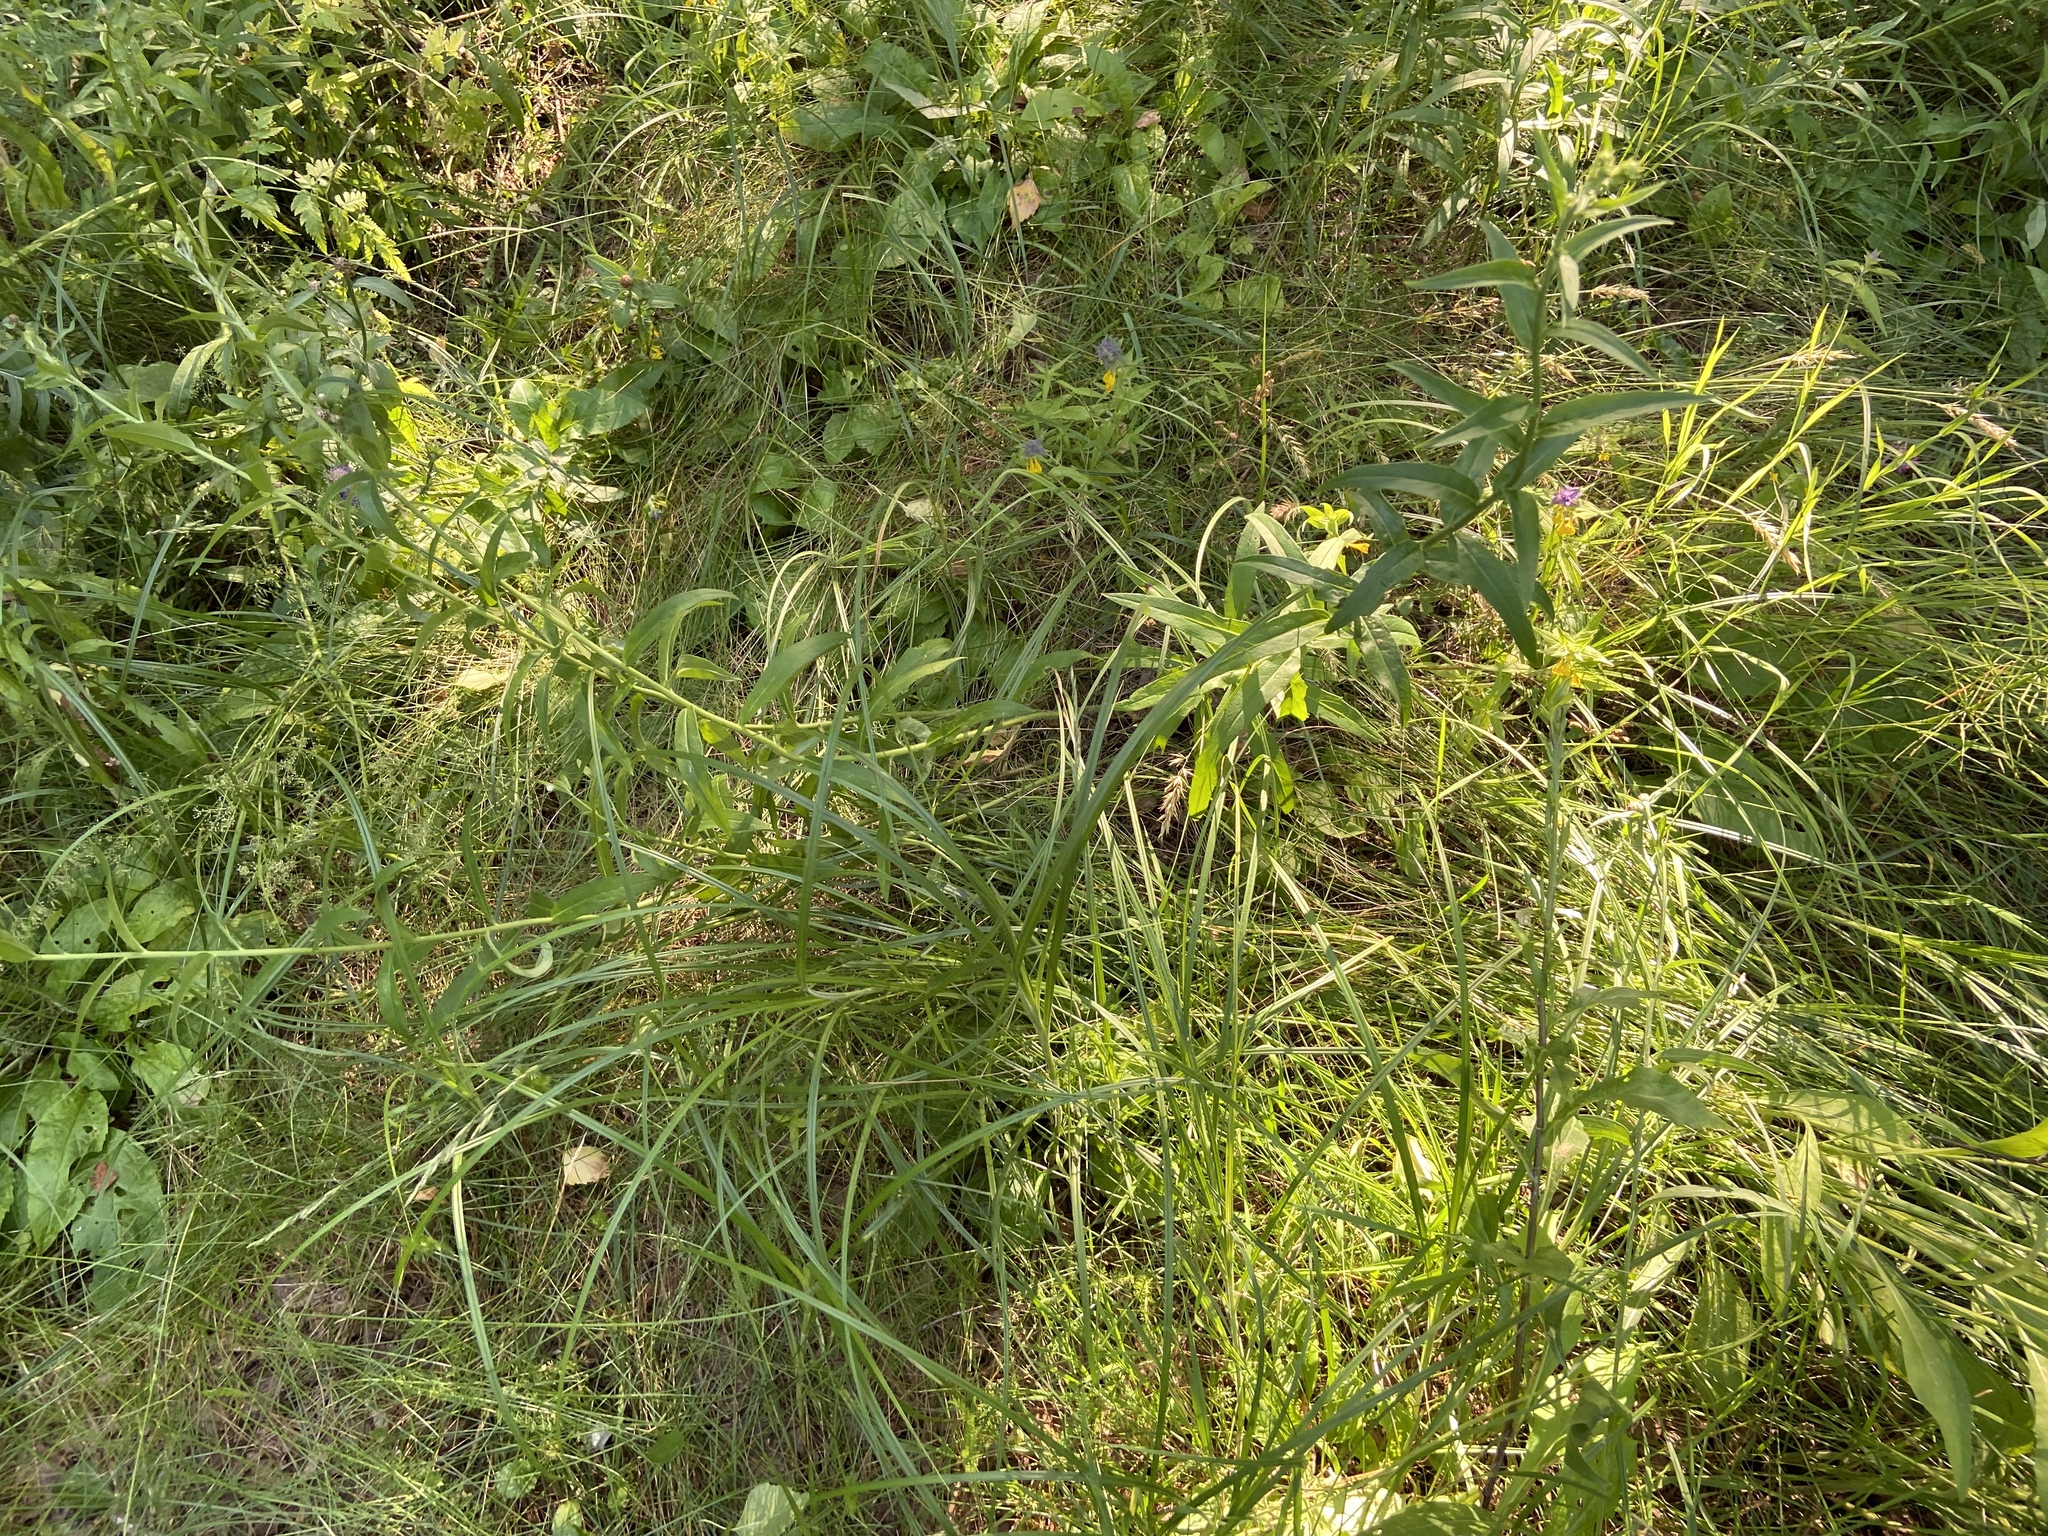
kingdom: Plantae
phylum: Tracheophyta
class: Magnoliopsida
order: Asterales
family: Asteraceae
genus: Hieracium
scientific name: Hieracium umbellatum
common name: Northern hawkweed
